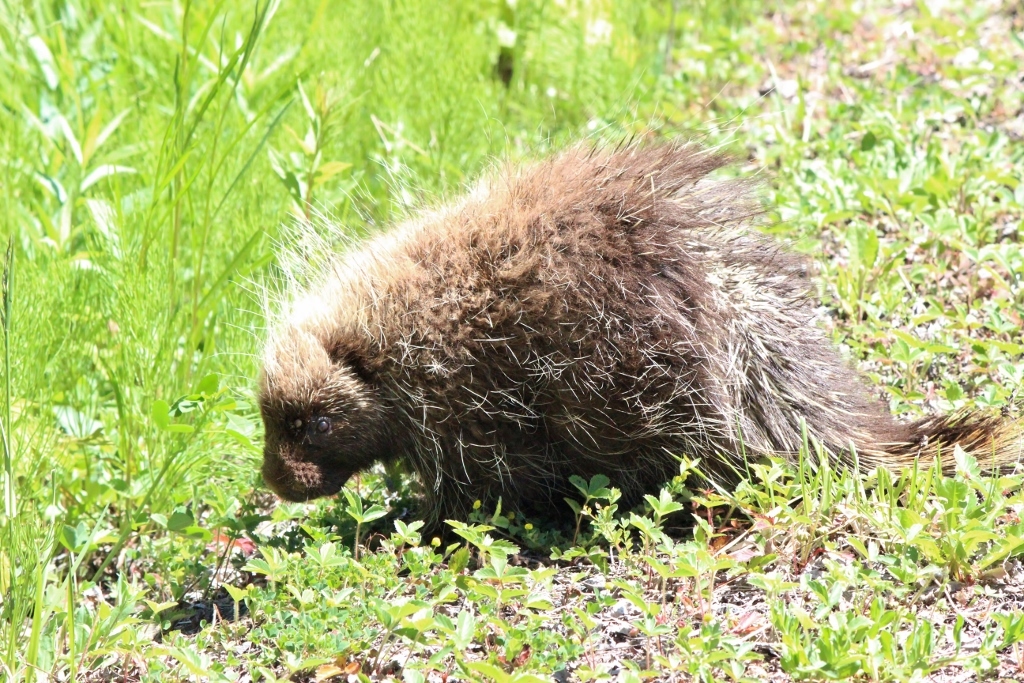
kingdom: Animalia
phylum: Chordata
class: Mammalia
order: Rodentia
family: Erethizontidae
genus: Erethizon
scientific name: Erethizon dorsatus
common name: North american porcupine
